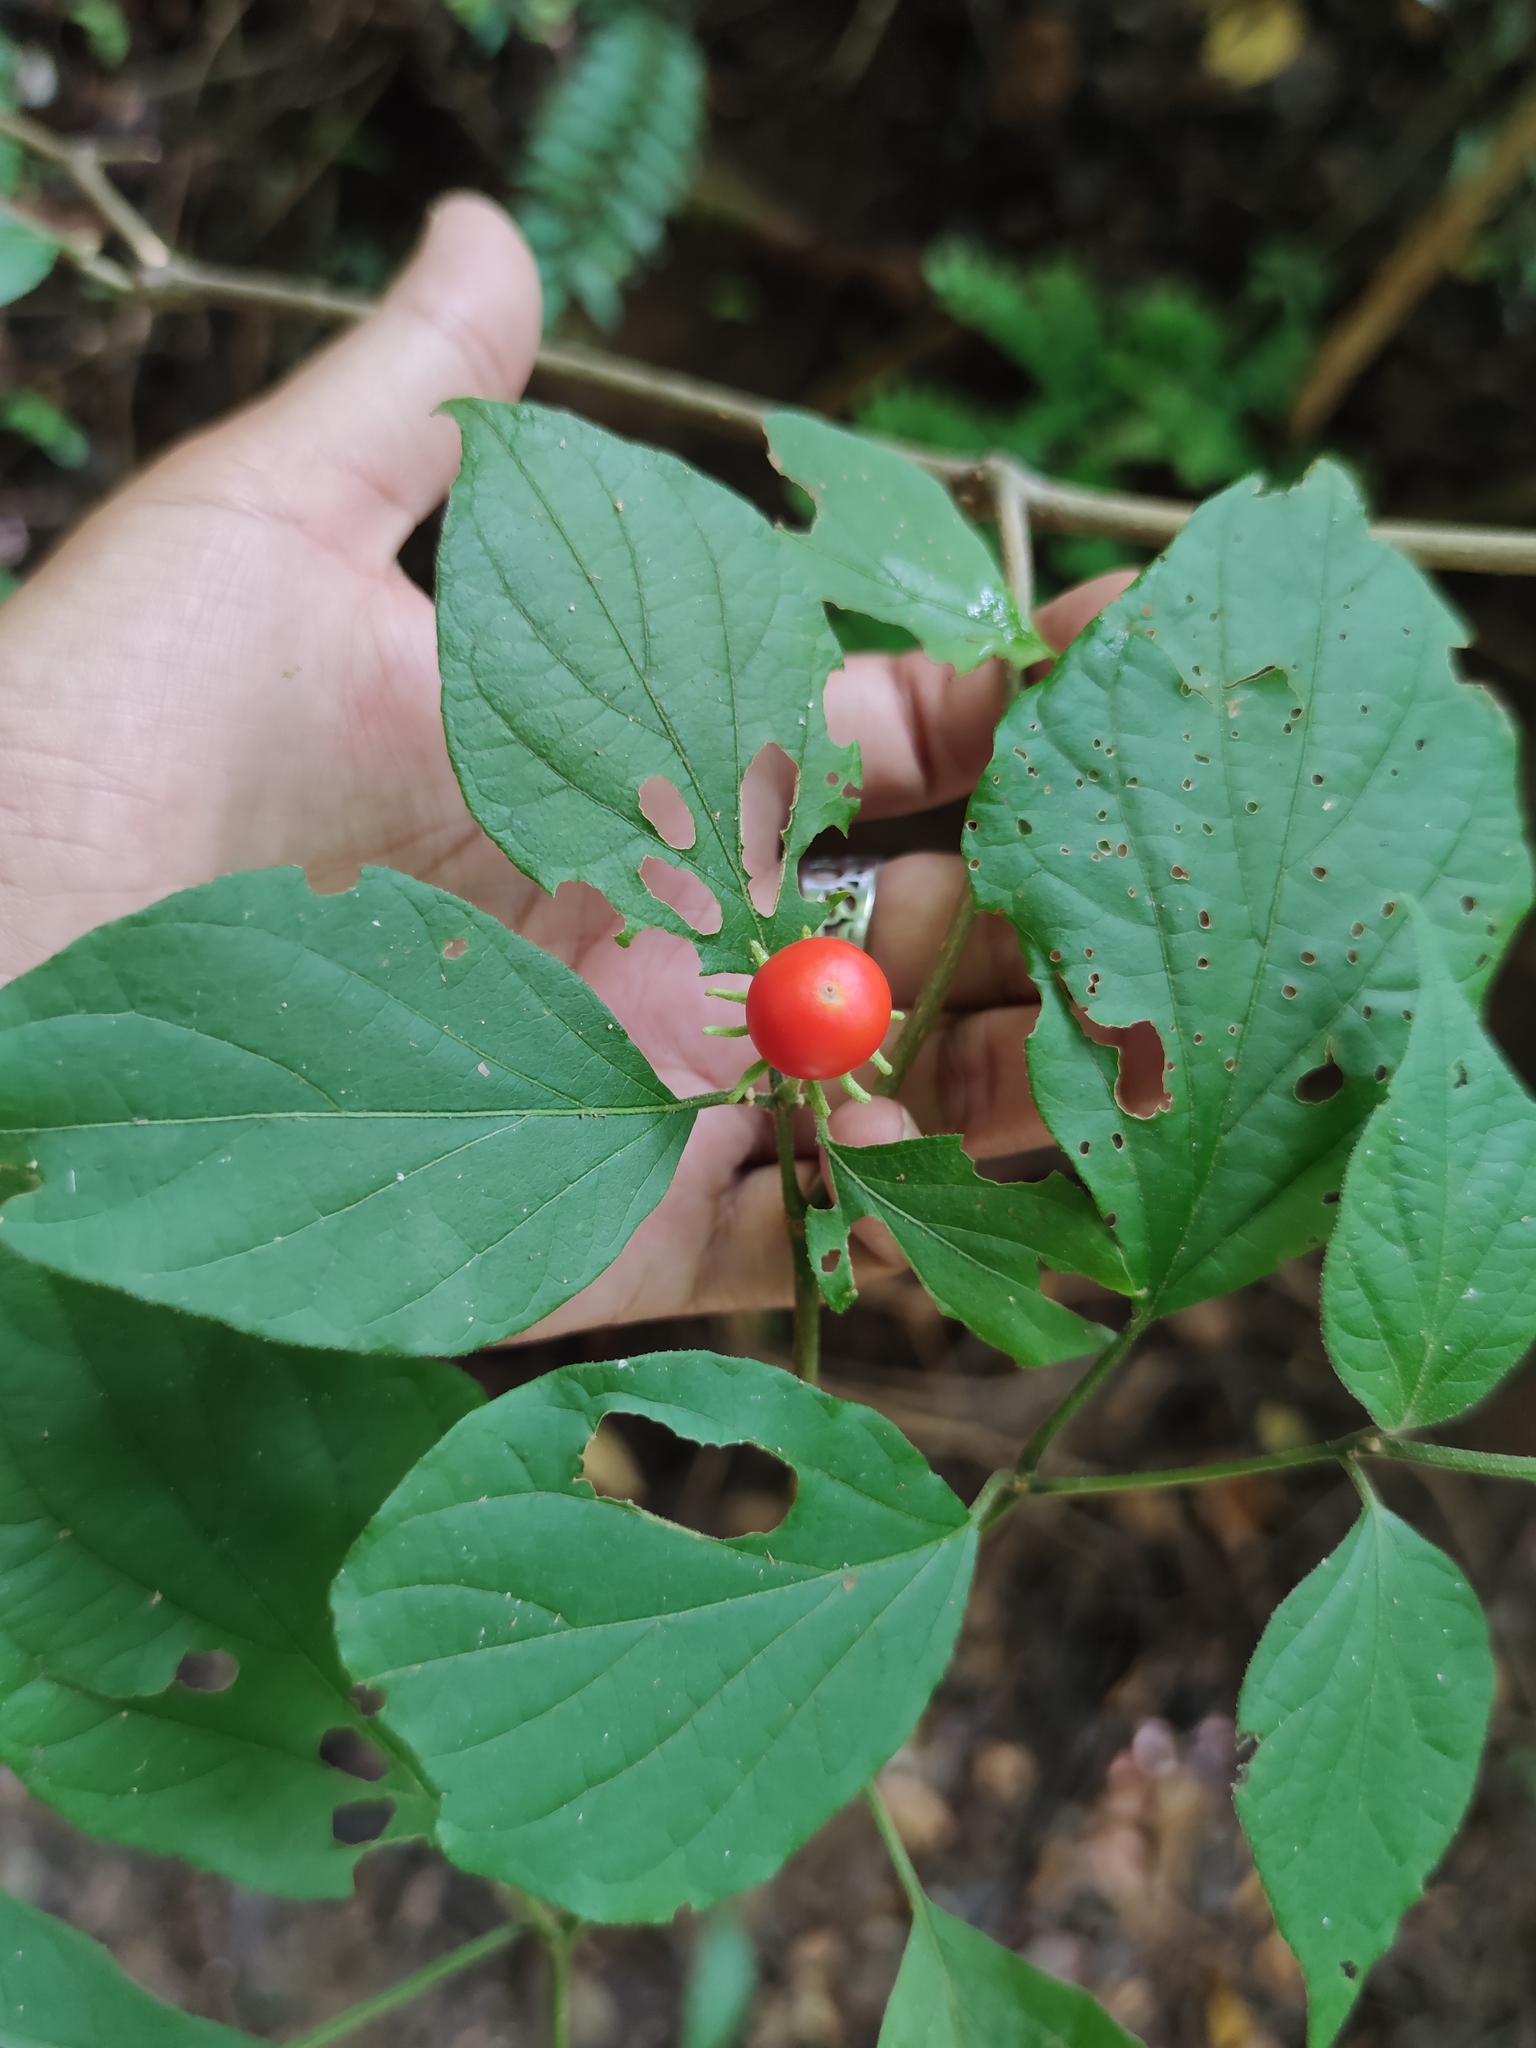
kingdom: Plantae
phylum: Tracheophyta
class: Magnoliopsida
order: Solanales
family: Solanaceae
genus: Lycianthes
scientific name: Lycianthes scandens
